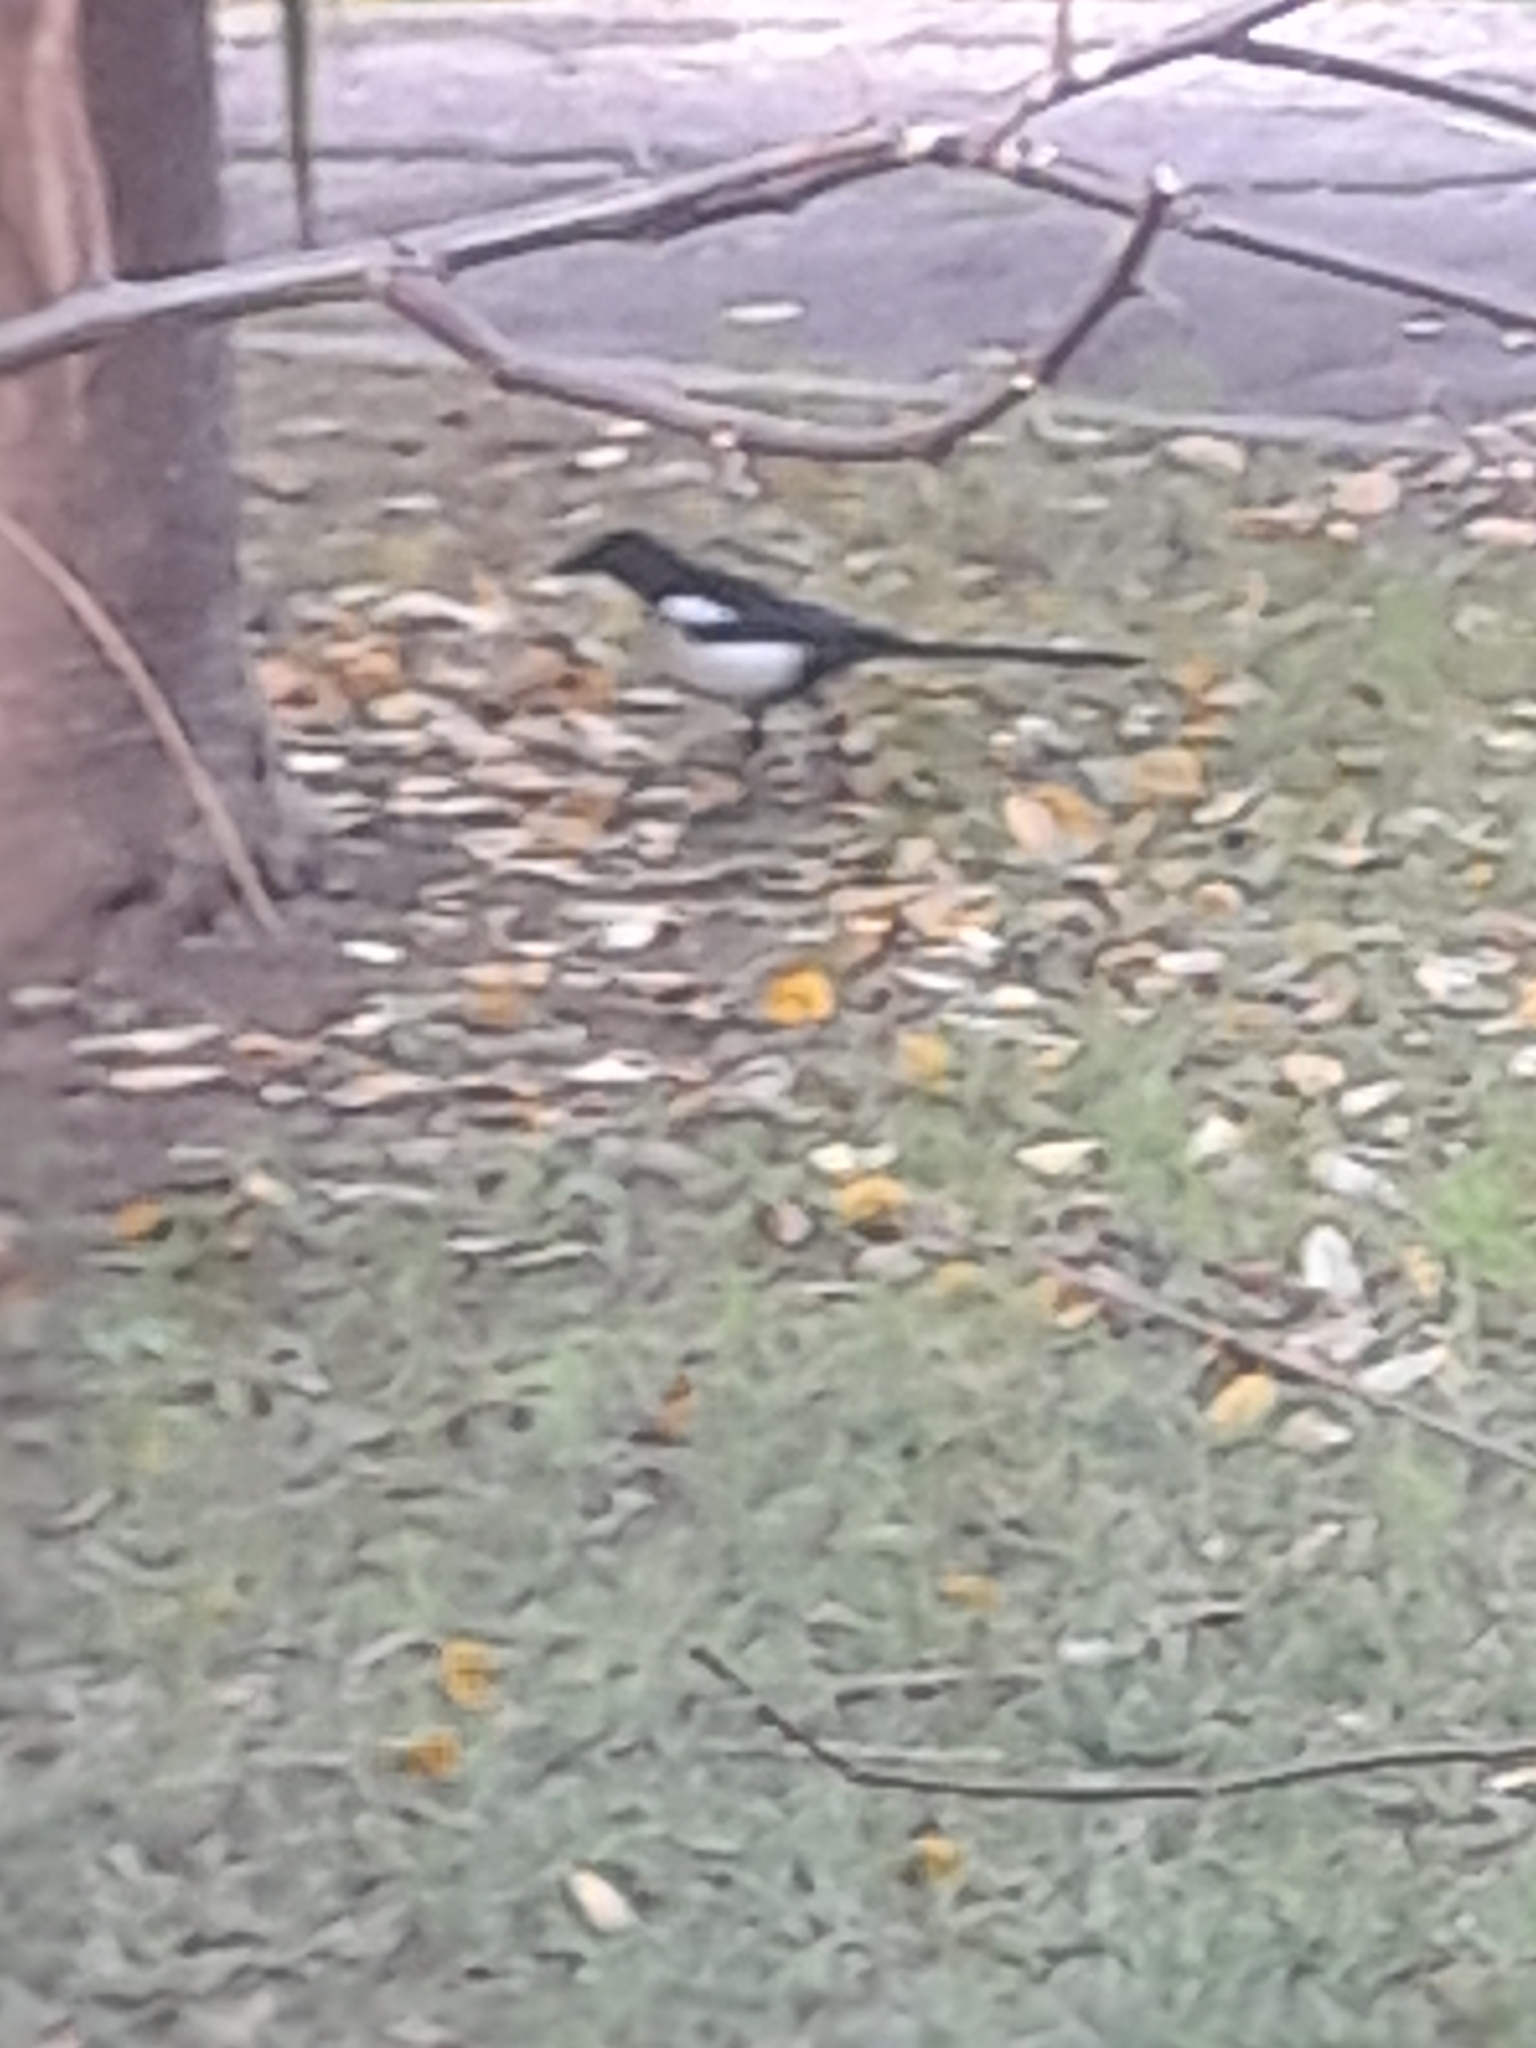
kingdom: Animalia
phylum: Chordata
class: Aves
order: Passeriformes
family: Corvidae
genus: Pica
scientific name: Pica pica
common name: Eurasian magpie
